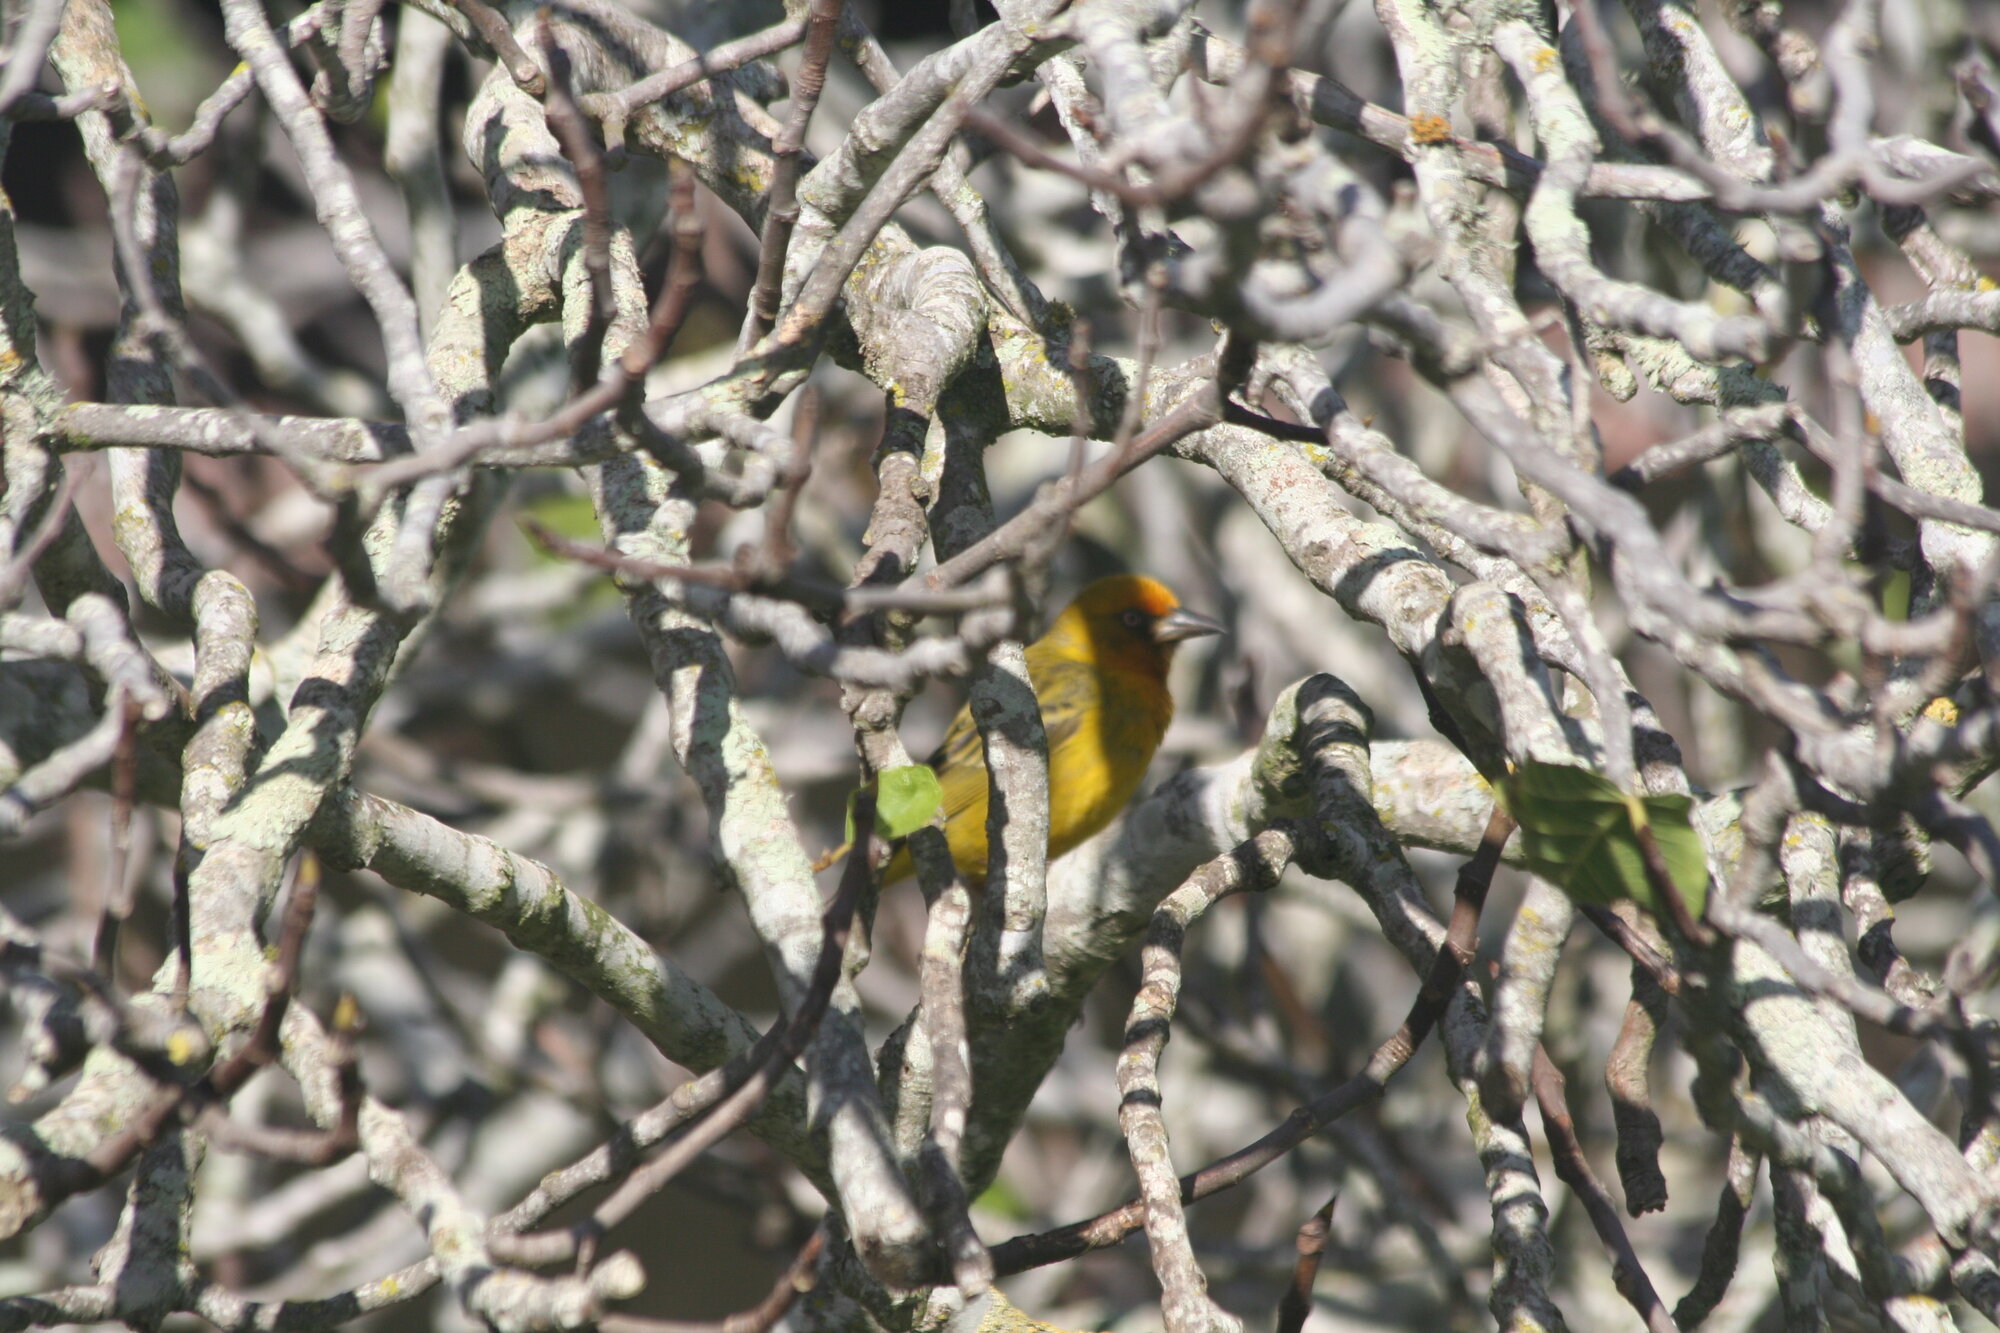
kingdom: Animalia
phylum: Chordata
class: Aves
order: Passeriformes
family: Ploceidae
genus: Ploceus
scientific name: Ploceus capensis
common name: Cape weaver
